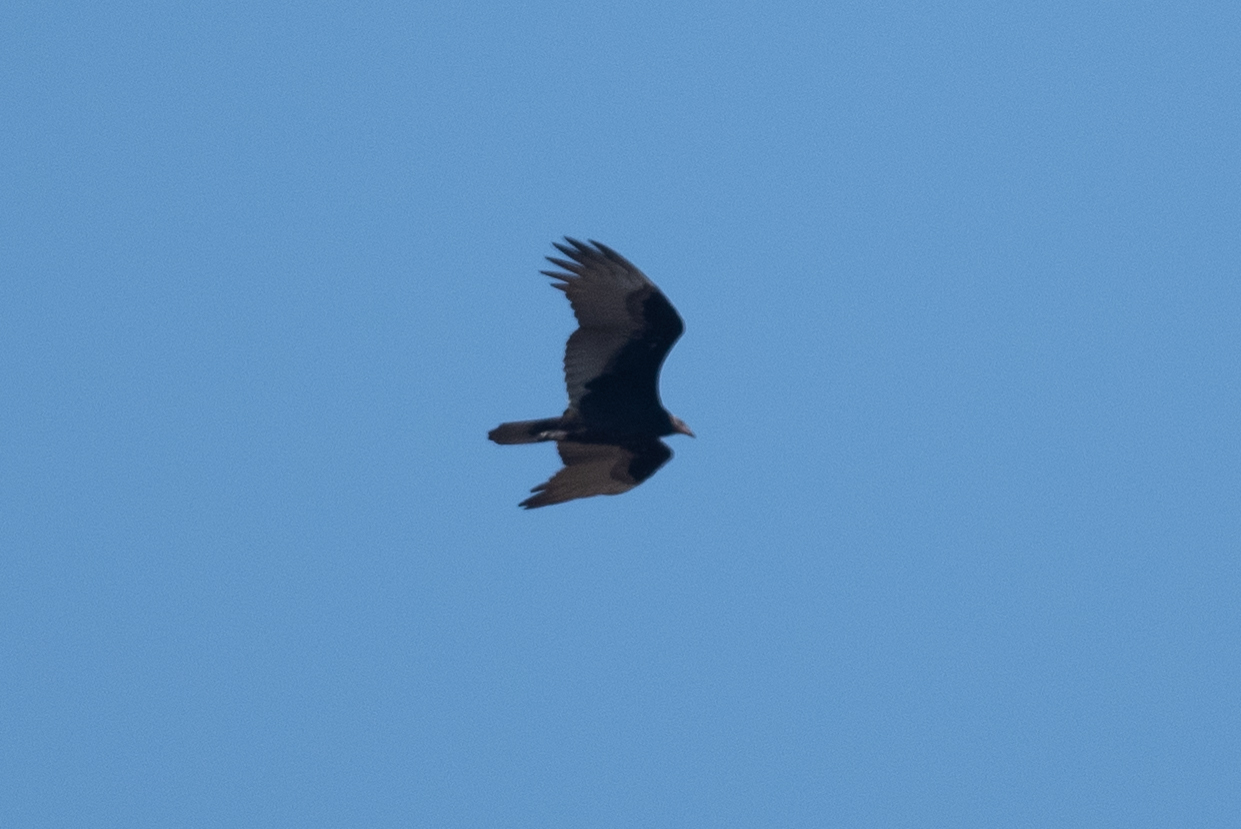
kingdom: Animalia
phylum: Chordata
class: Aves
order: Accipitriformes
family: Cathartidae
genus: Cathartes
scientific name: Cathartes aura
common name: Turkey vulture
